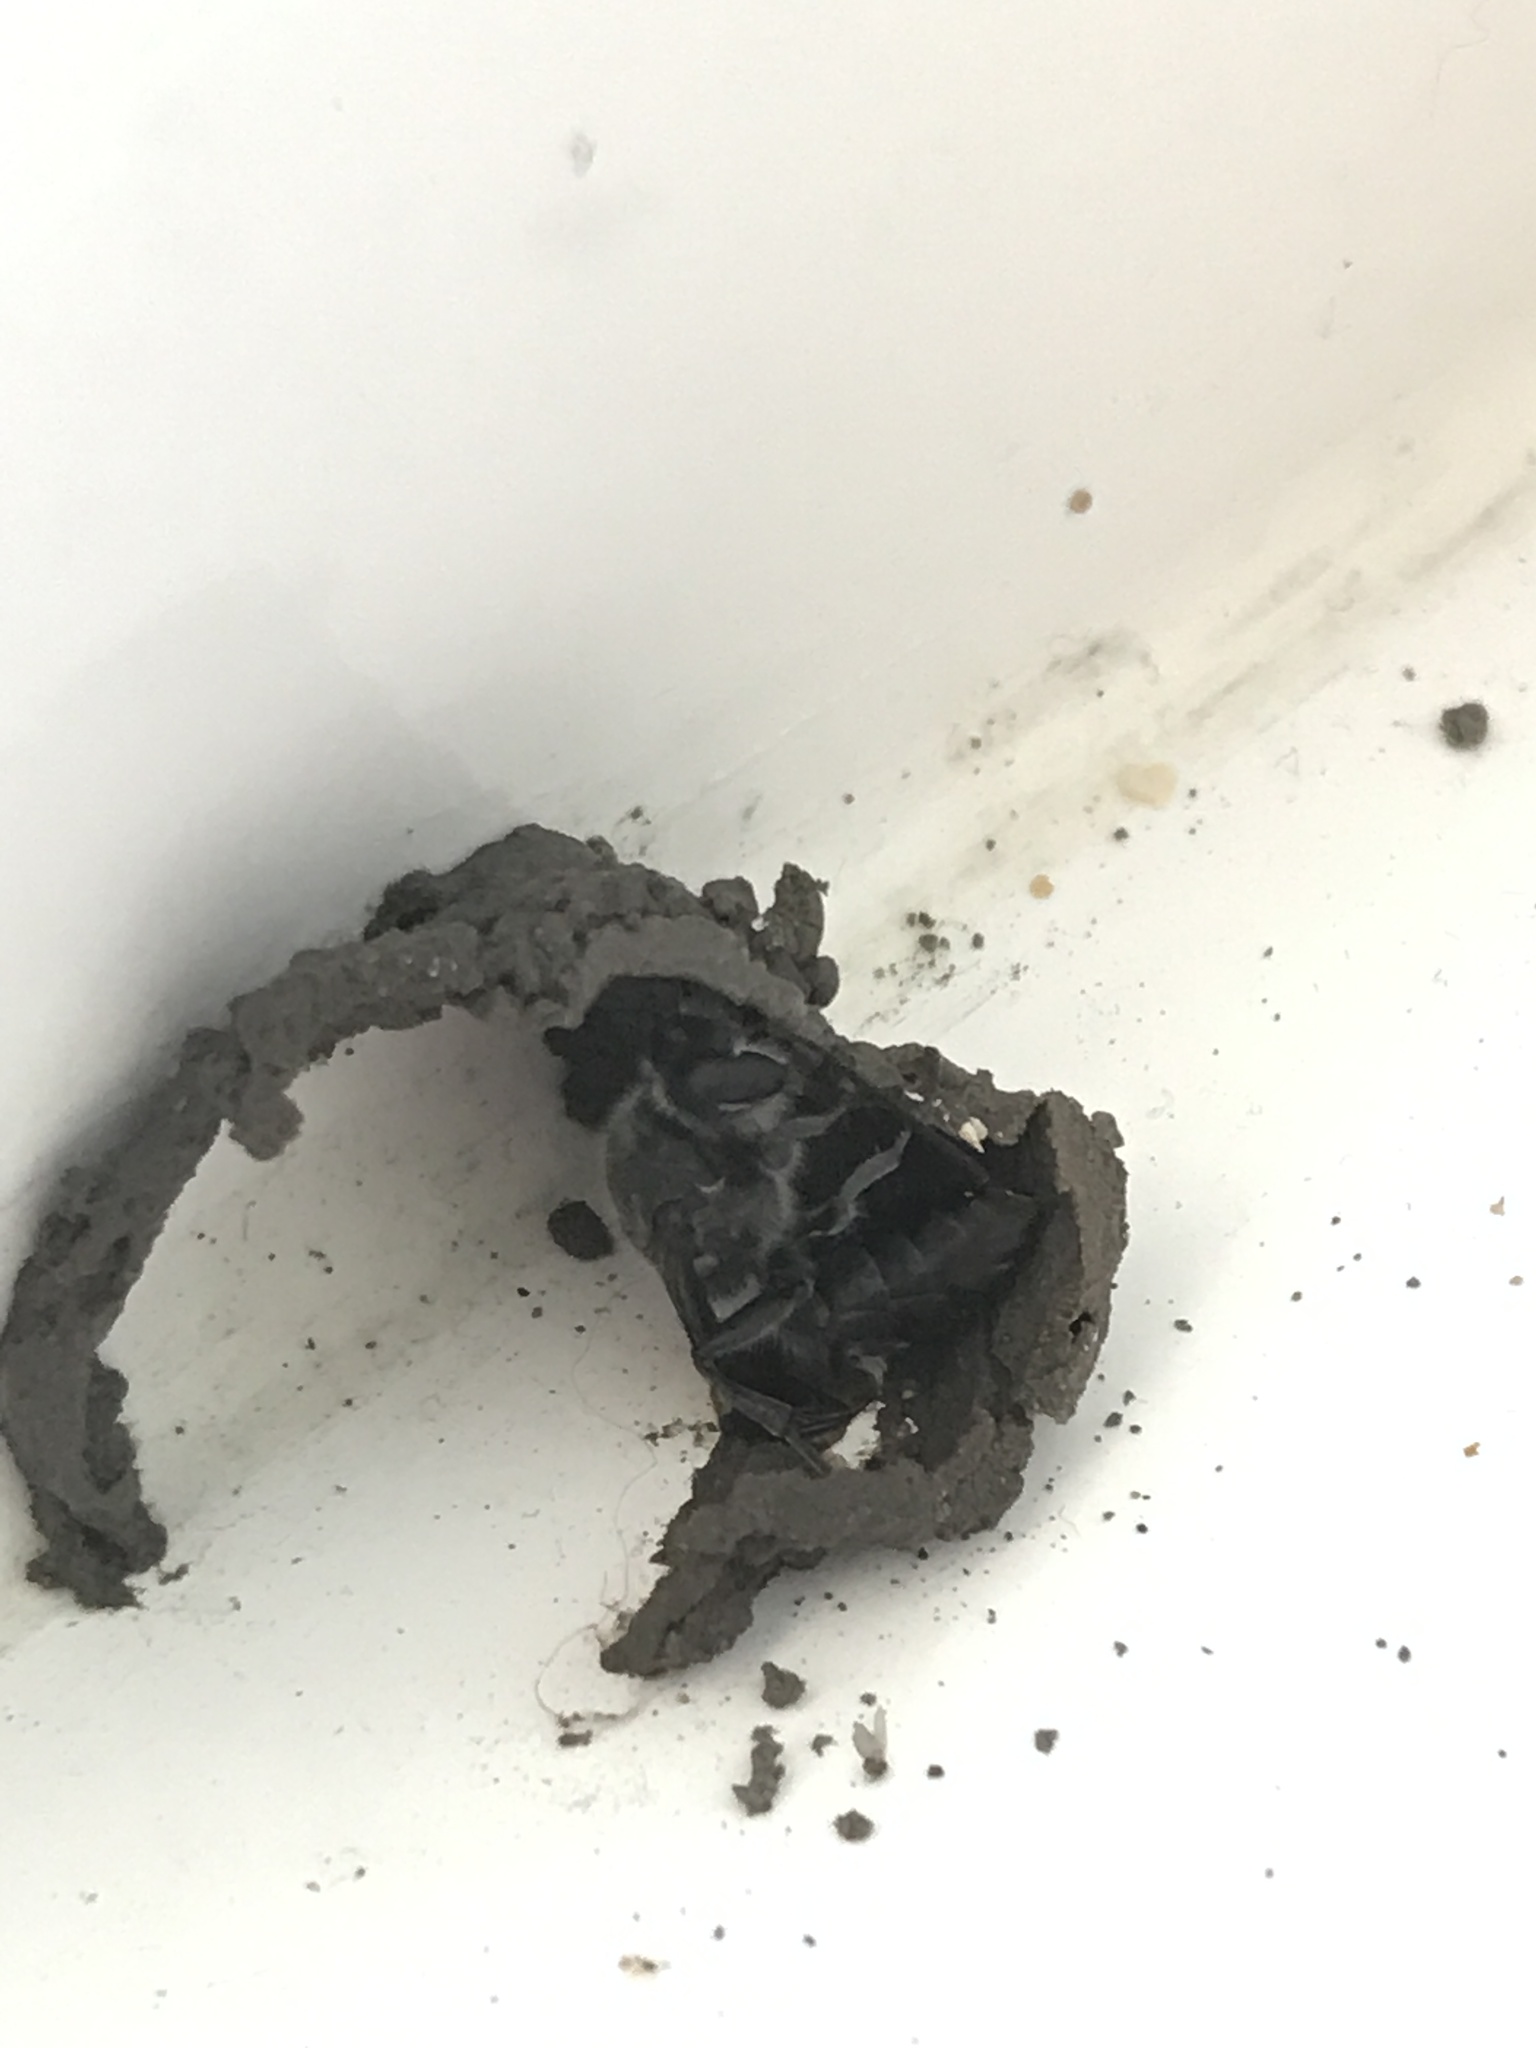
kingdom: Animalia
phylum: Arthropoda
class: Insecta
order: Hymenoptera
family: Crabronidae
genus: Pison
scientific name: Pison spinolae
